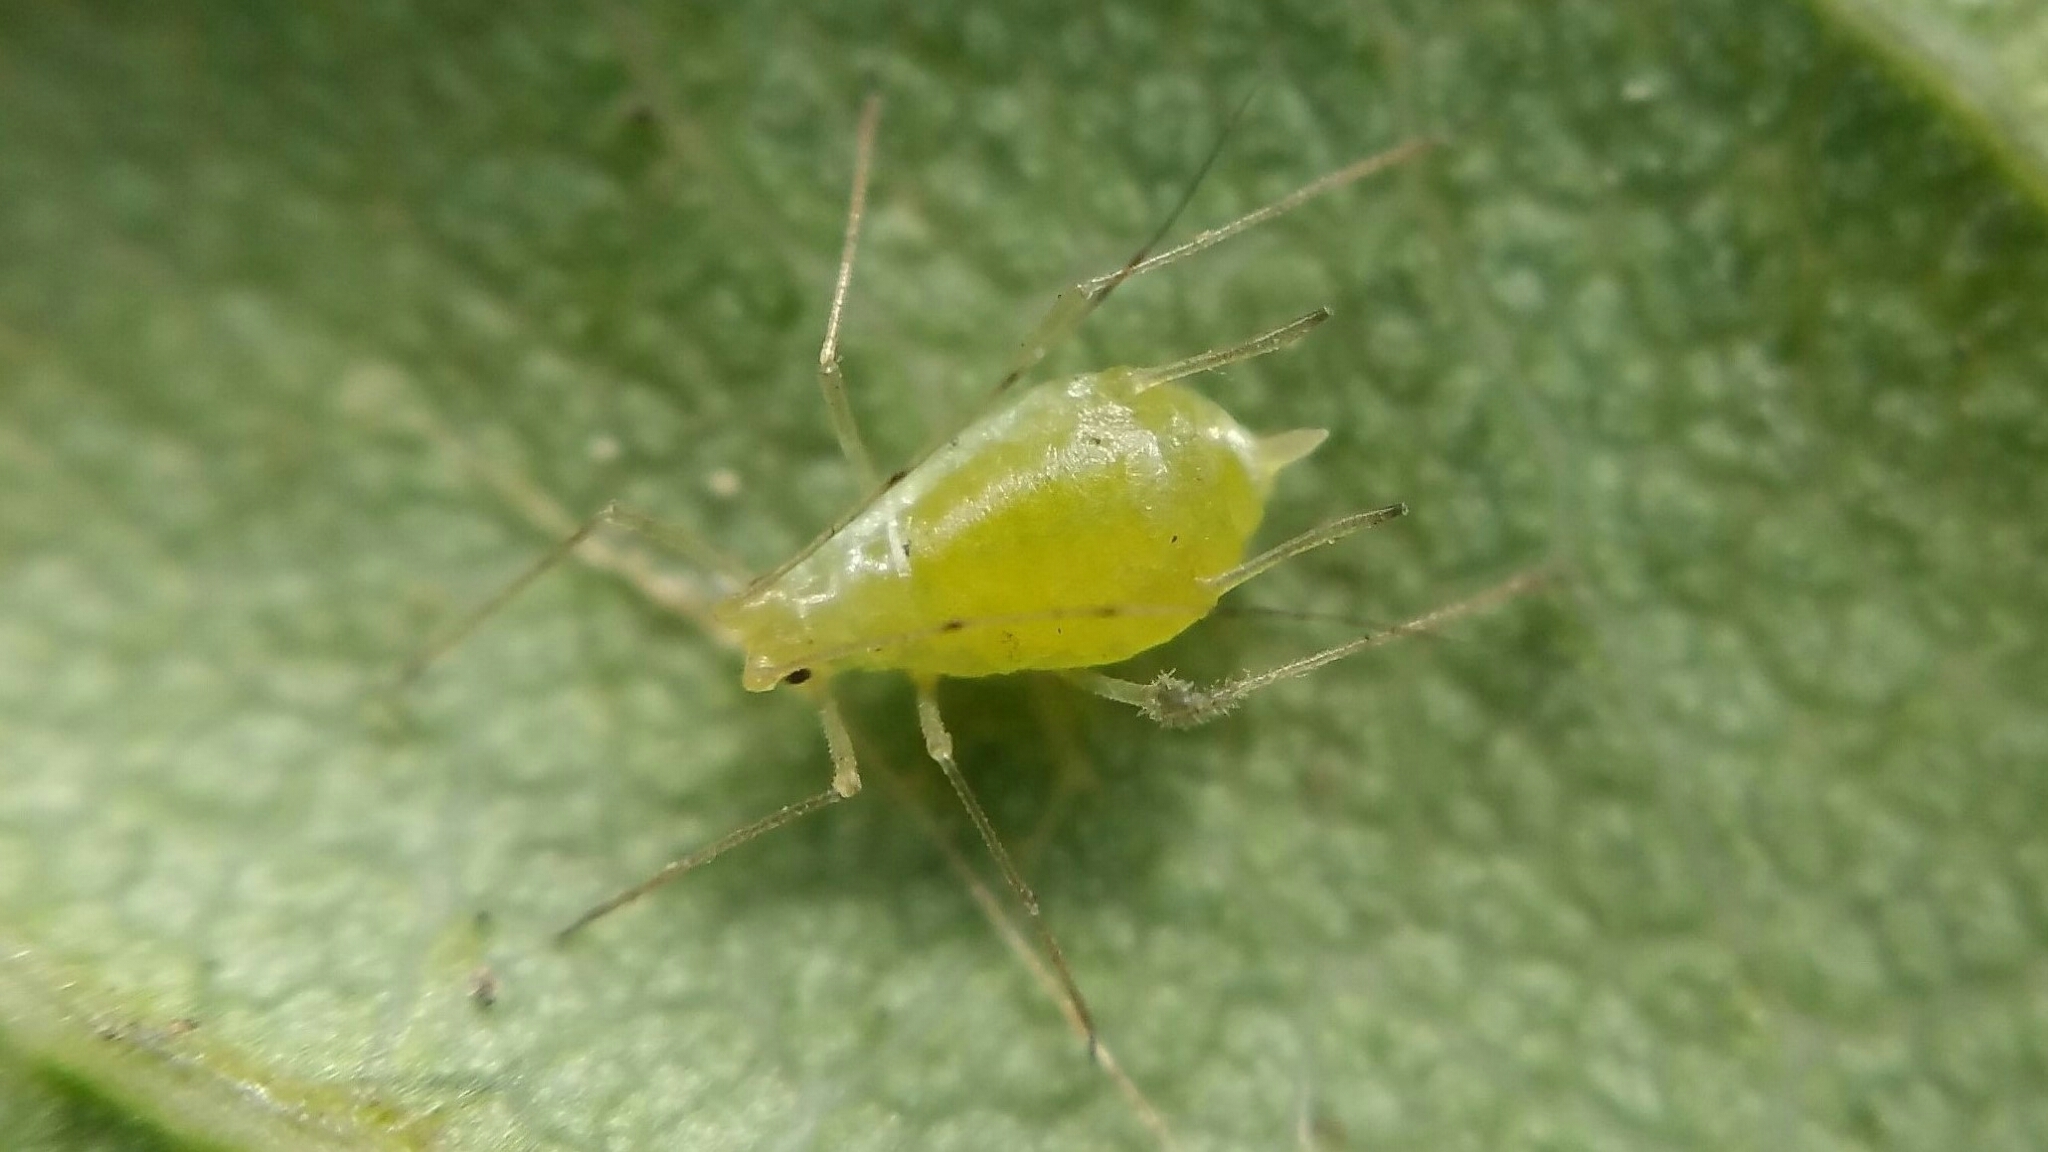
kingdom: Animalia
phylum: Arthropoda
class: Insecta
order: Hemiptera
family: Aphididae
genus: Wahlgreniella
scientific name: Wahlgreniella nervata
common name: Pale green aphid
